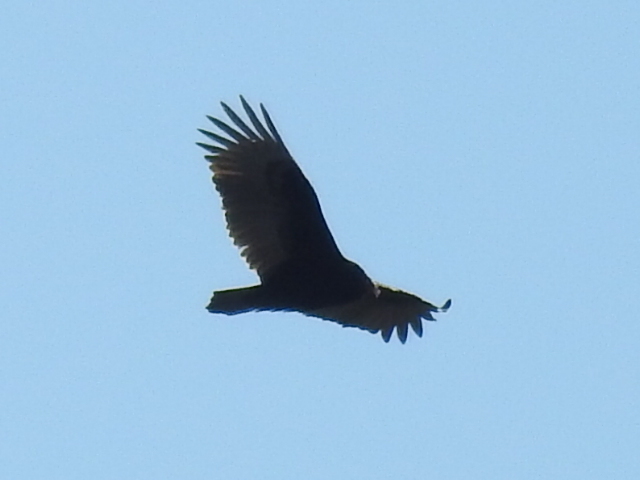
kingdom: Animalia
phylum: Chordata
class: Aves
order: Accipitriformes
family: Cathartidae
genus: Cathartes
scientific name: Cathartes aura
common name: Turkey vulture
